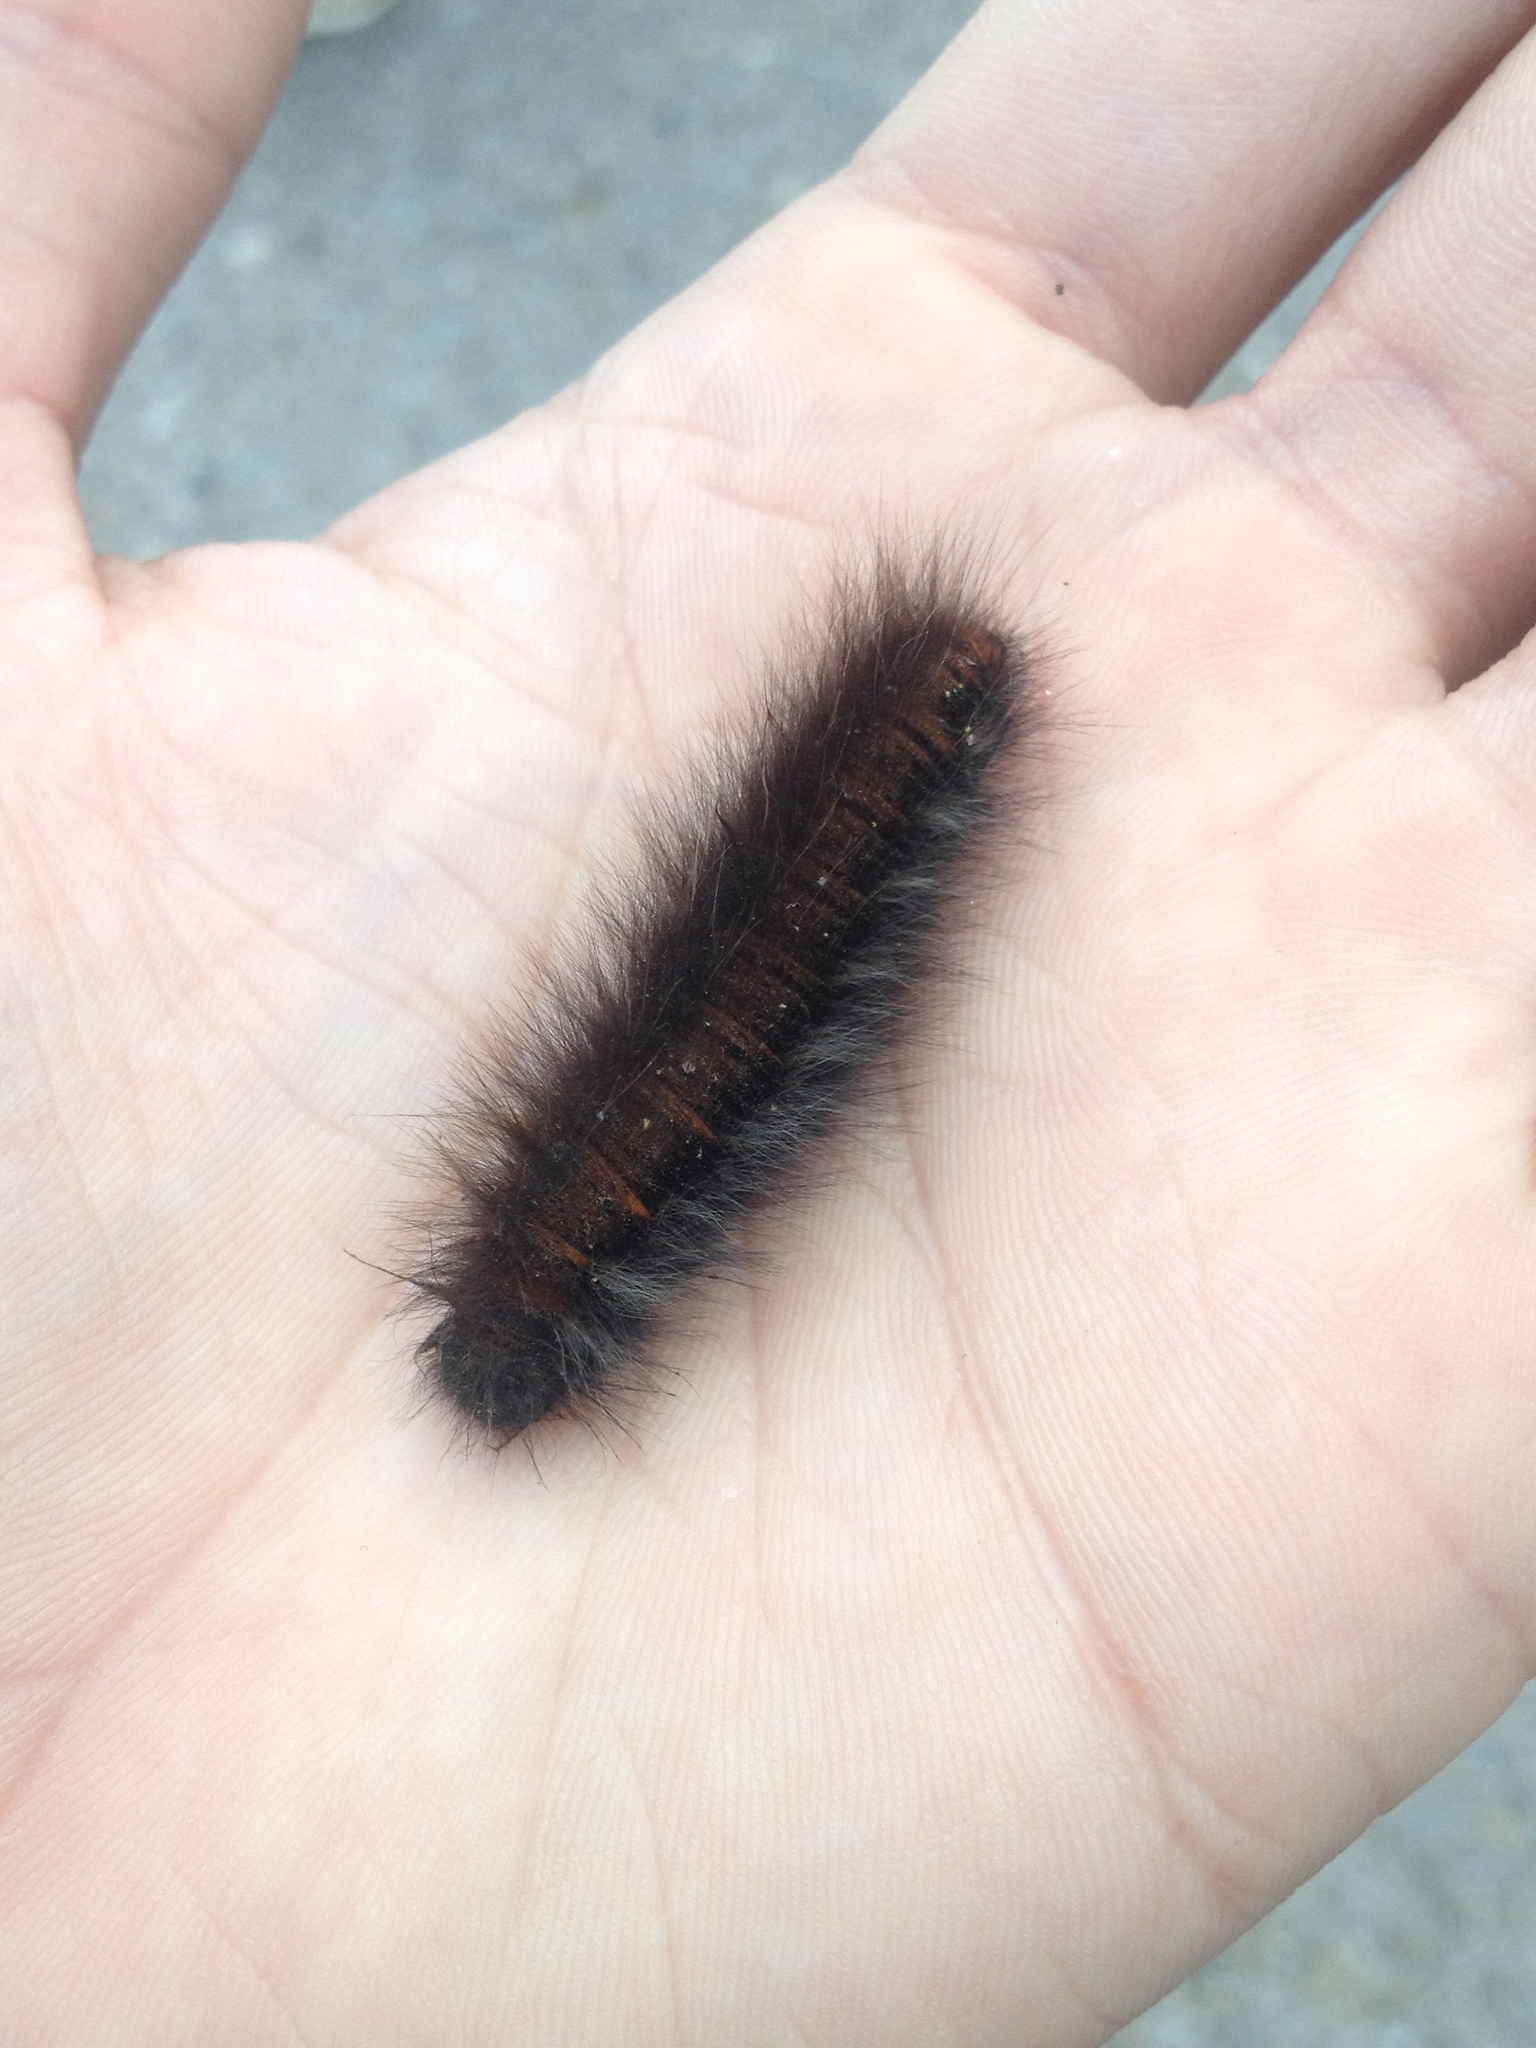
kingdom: Animalia
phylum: Arthropoda
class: Insecta
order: Lepidoptera
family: Lasiocampidae
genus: Macrothylacia
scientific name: Macrothylacia rubi
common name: Fox moth
